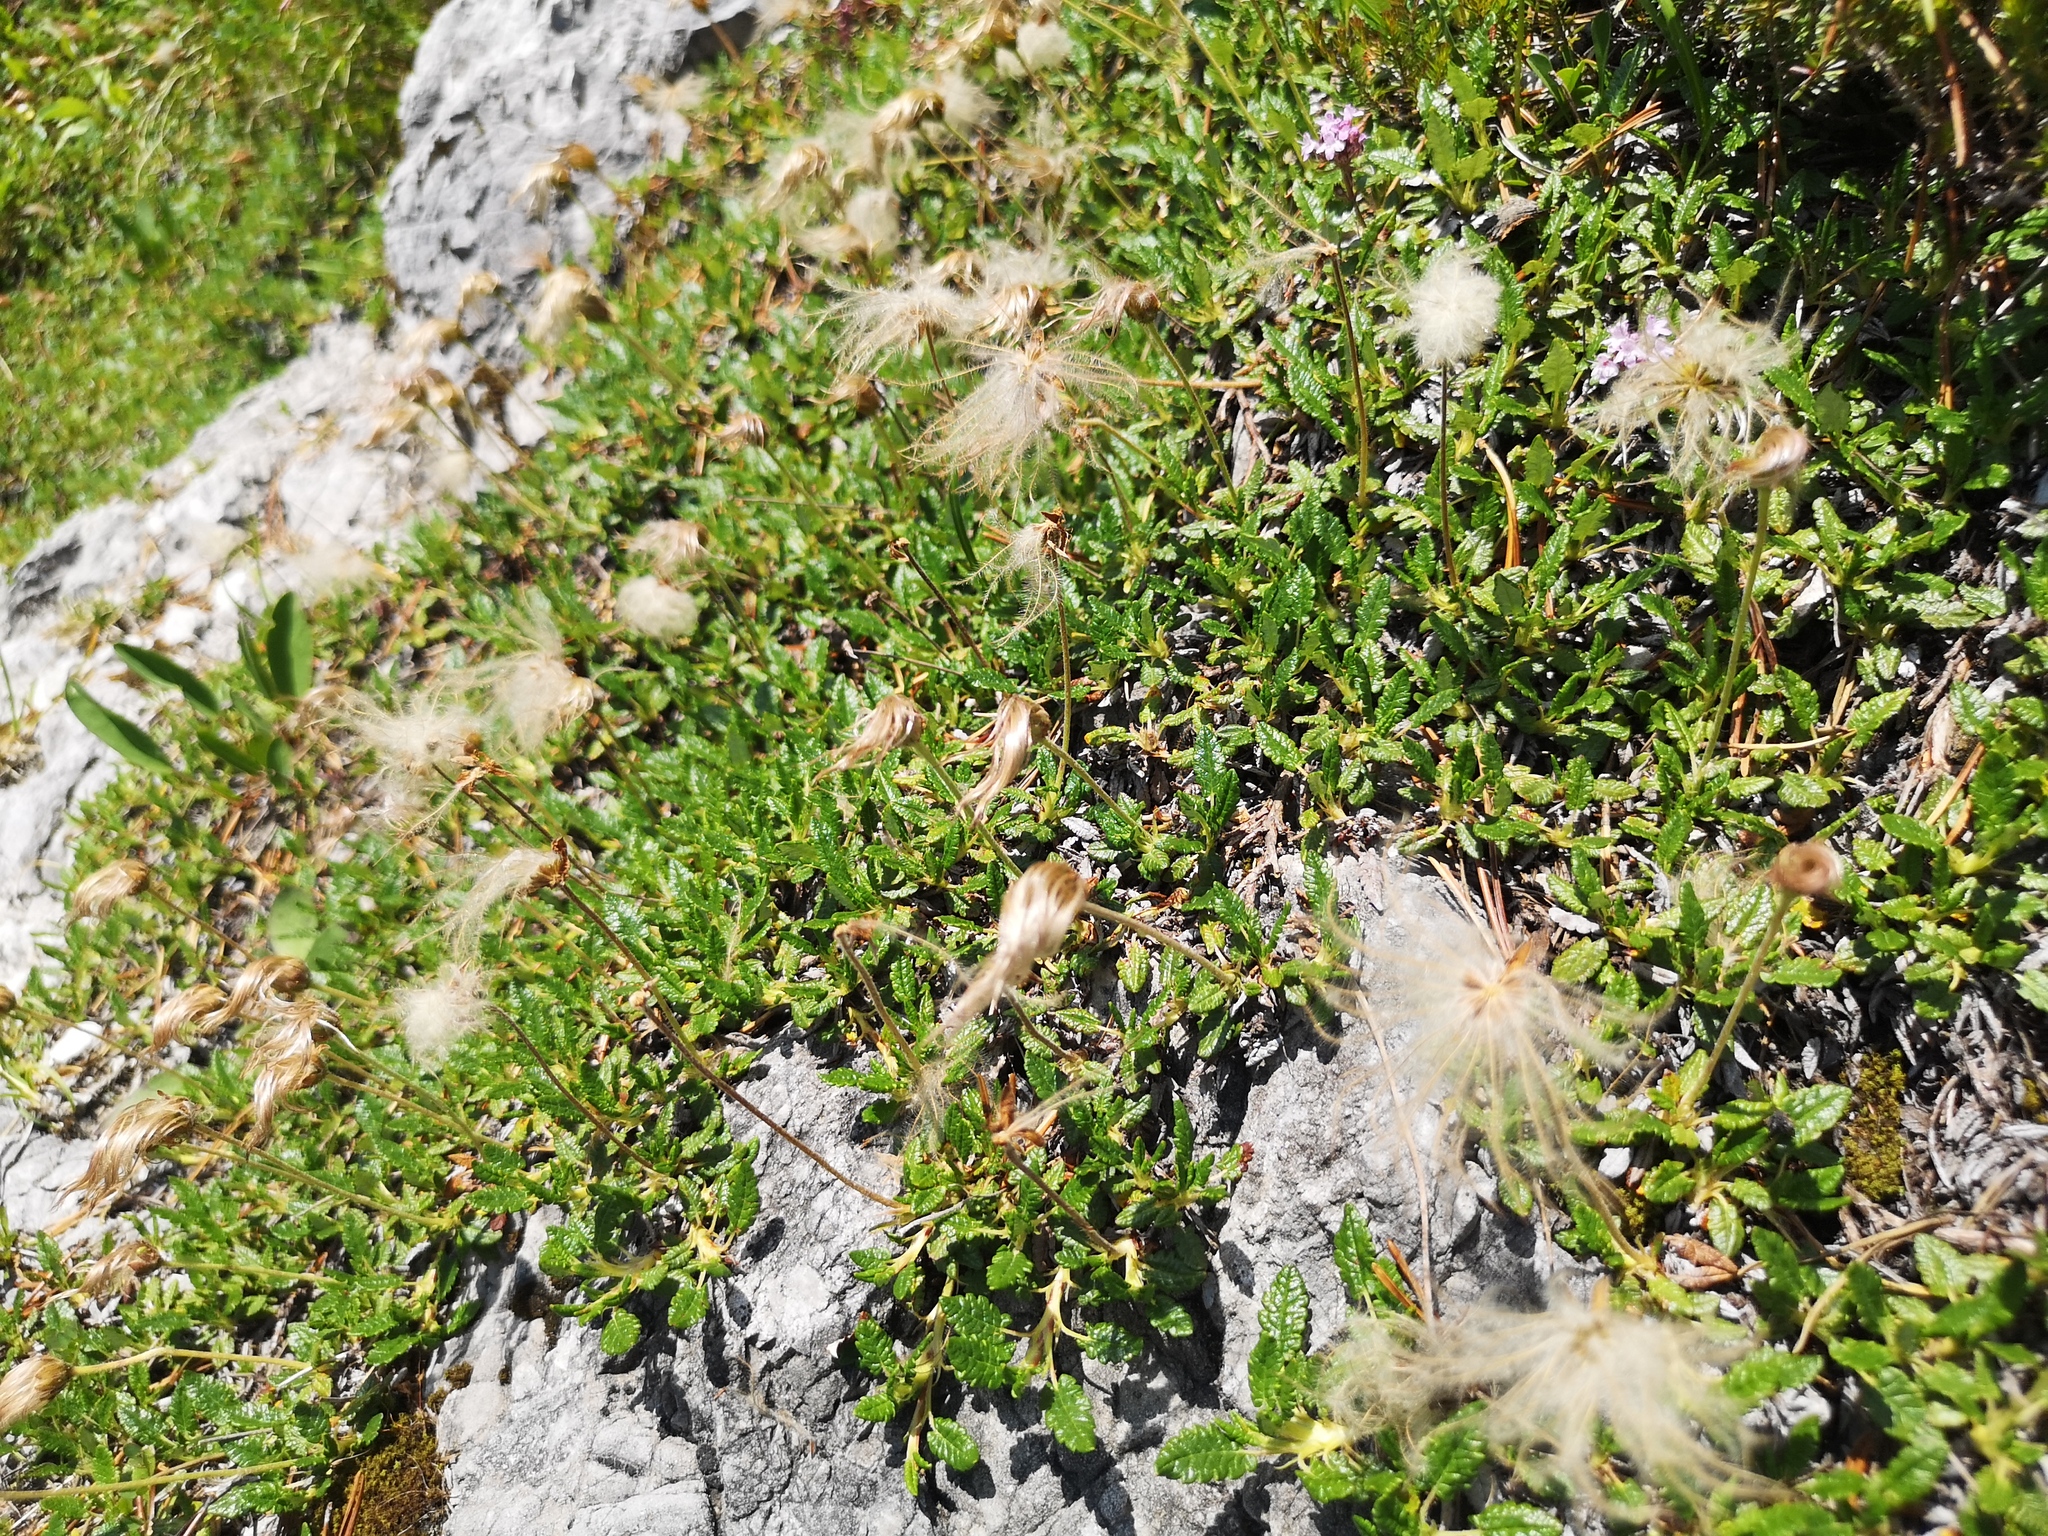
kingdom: Plantae
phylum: Tracheophyta
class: Magnoliopsida
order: Rosales
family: Rosaceae
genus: Dryas
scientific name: Dryas octopetala
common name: Eight-petal mountain-avens
